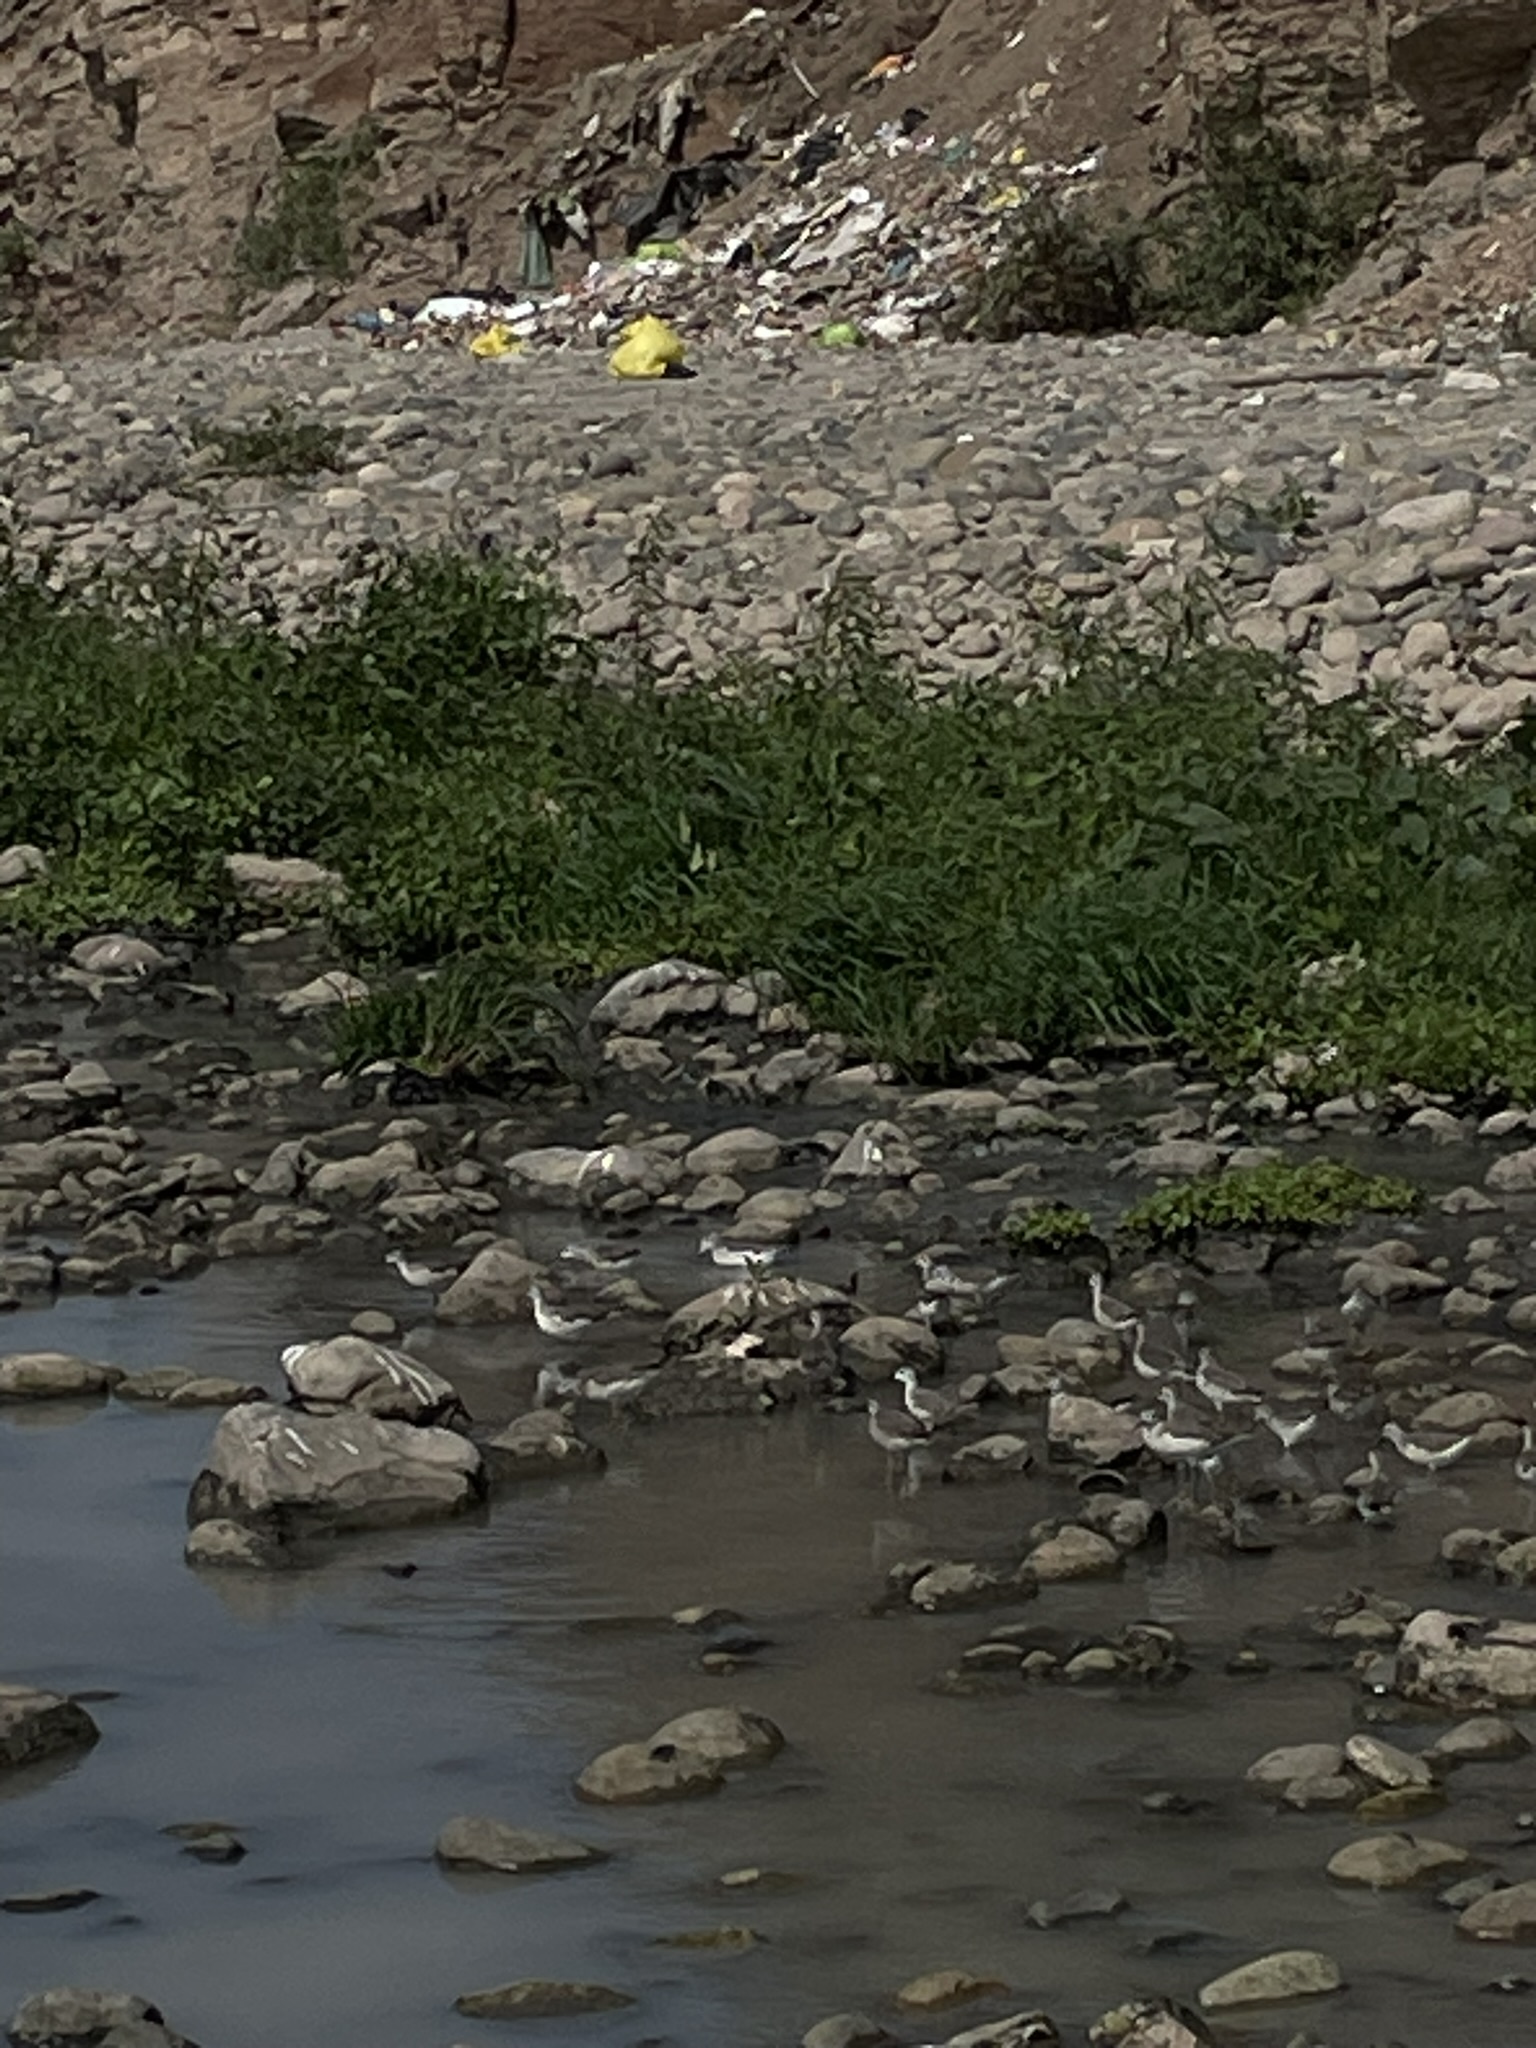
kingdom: Animalia
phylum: Chordata
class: Aves
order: Charadriiformes
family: Scolopacidae
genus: Phalaropus
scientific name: Phalaropus tricolor
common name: Wilson's phalarope
